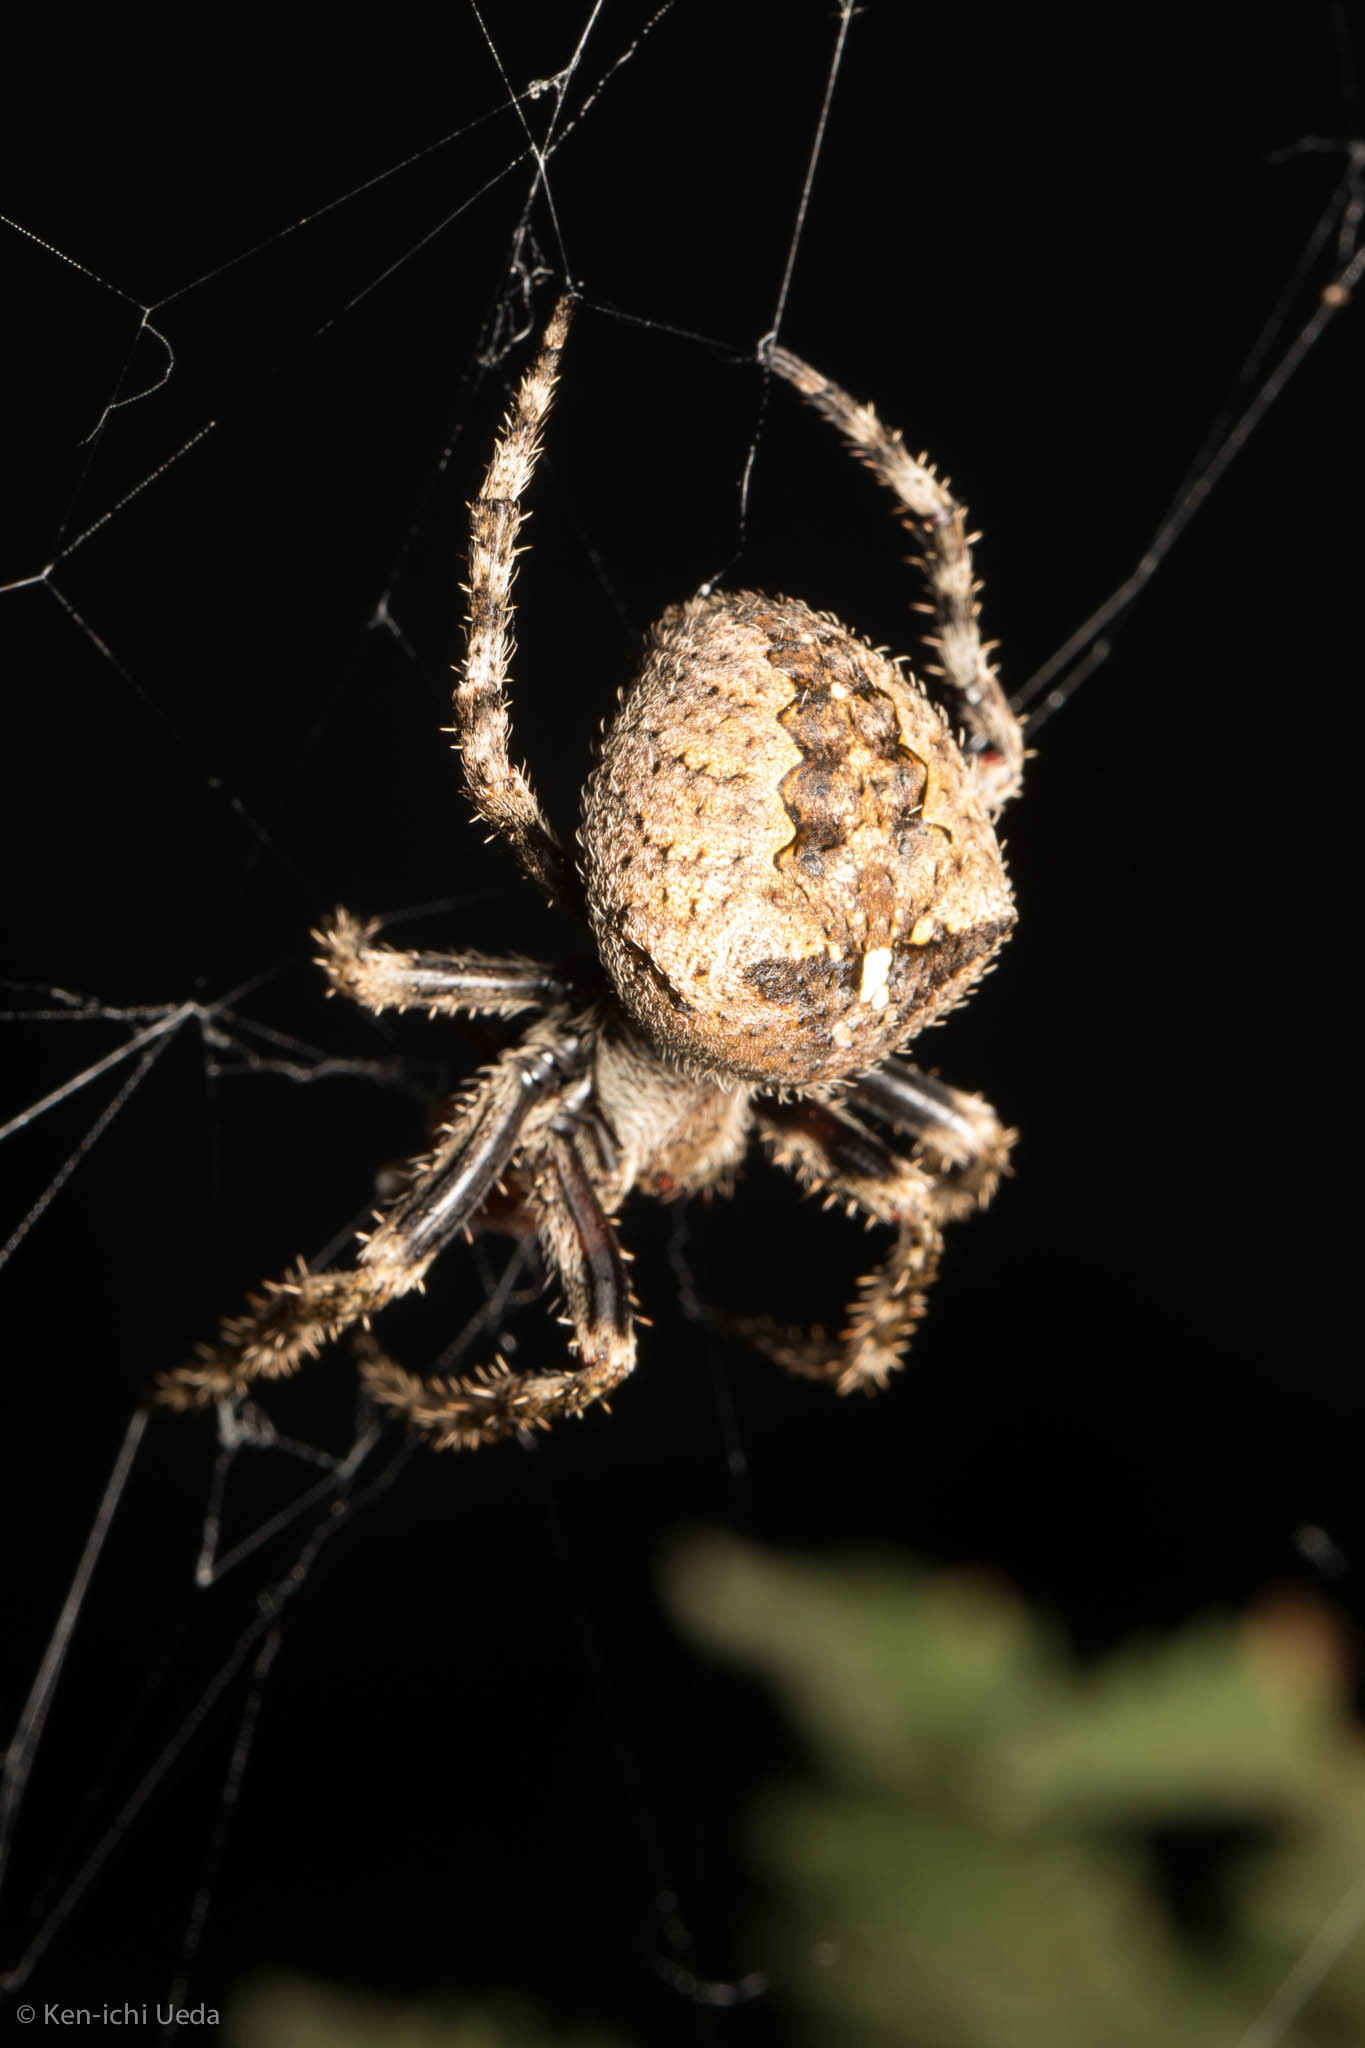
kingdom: Animalia
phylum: Arthropoda
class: Arachnida
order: Araneae
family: Araneidae
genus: Araneus
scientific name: Araneus andrewsi
